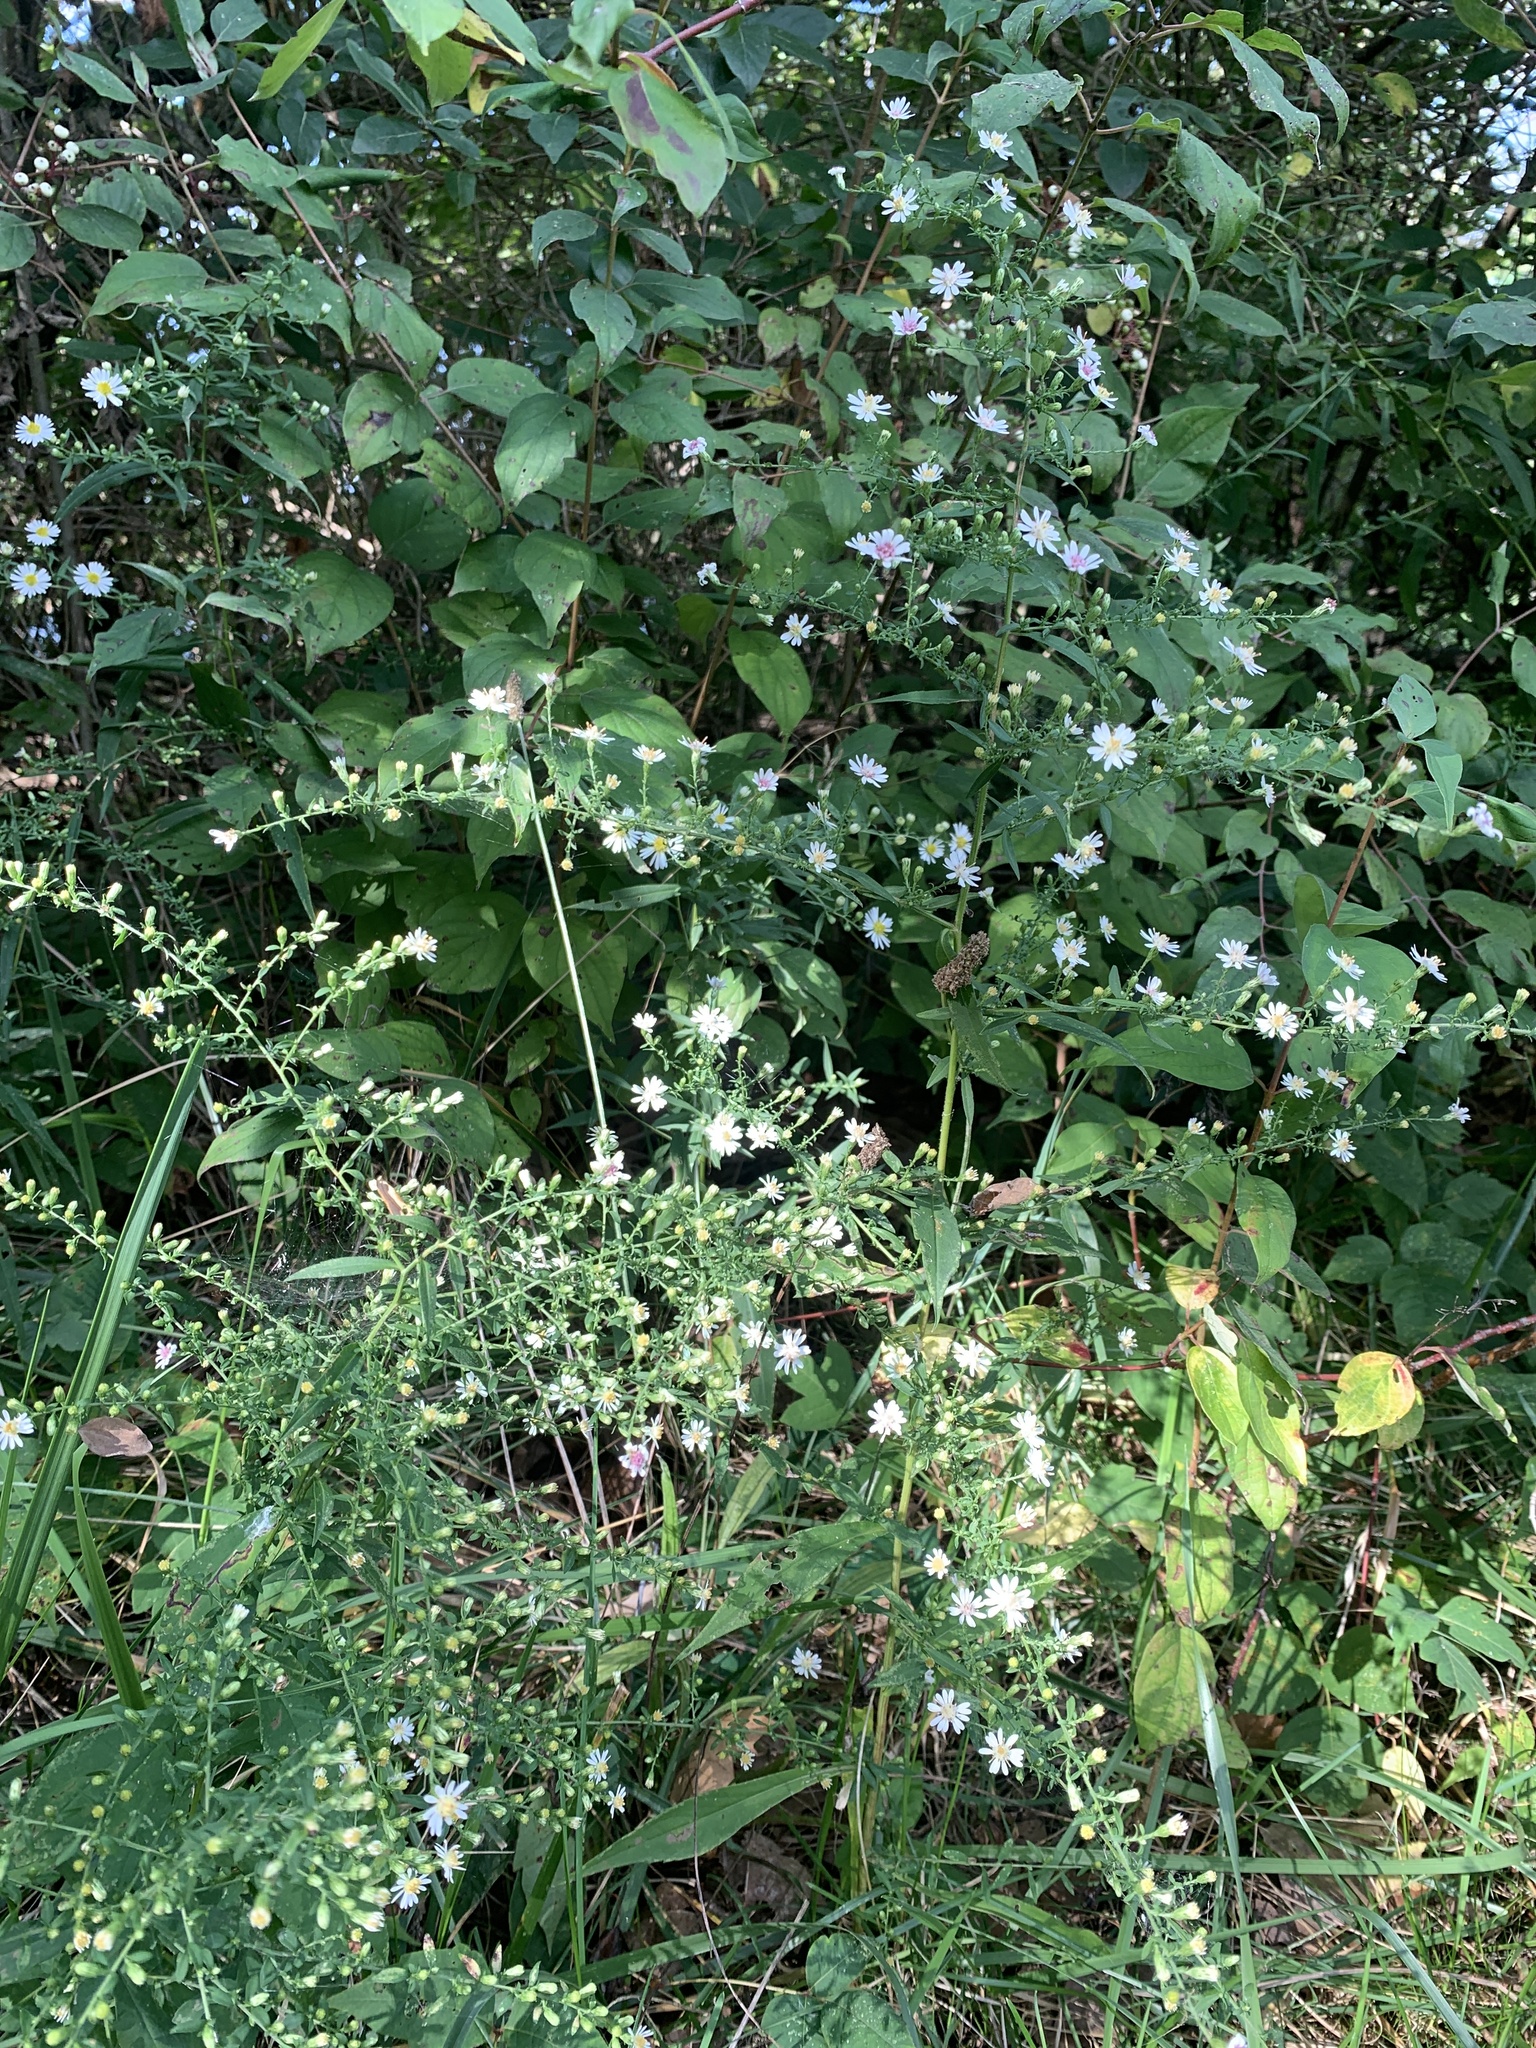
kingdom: Plantae
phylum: Tracheophyta
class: Magnoliopsida
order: Asterales
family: Asteraceae
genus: Symphyotrichum
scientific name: Symphyotrichum lateriflorum
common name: Calico aster
